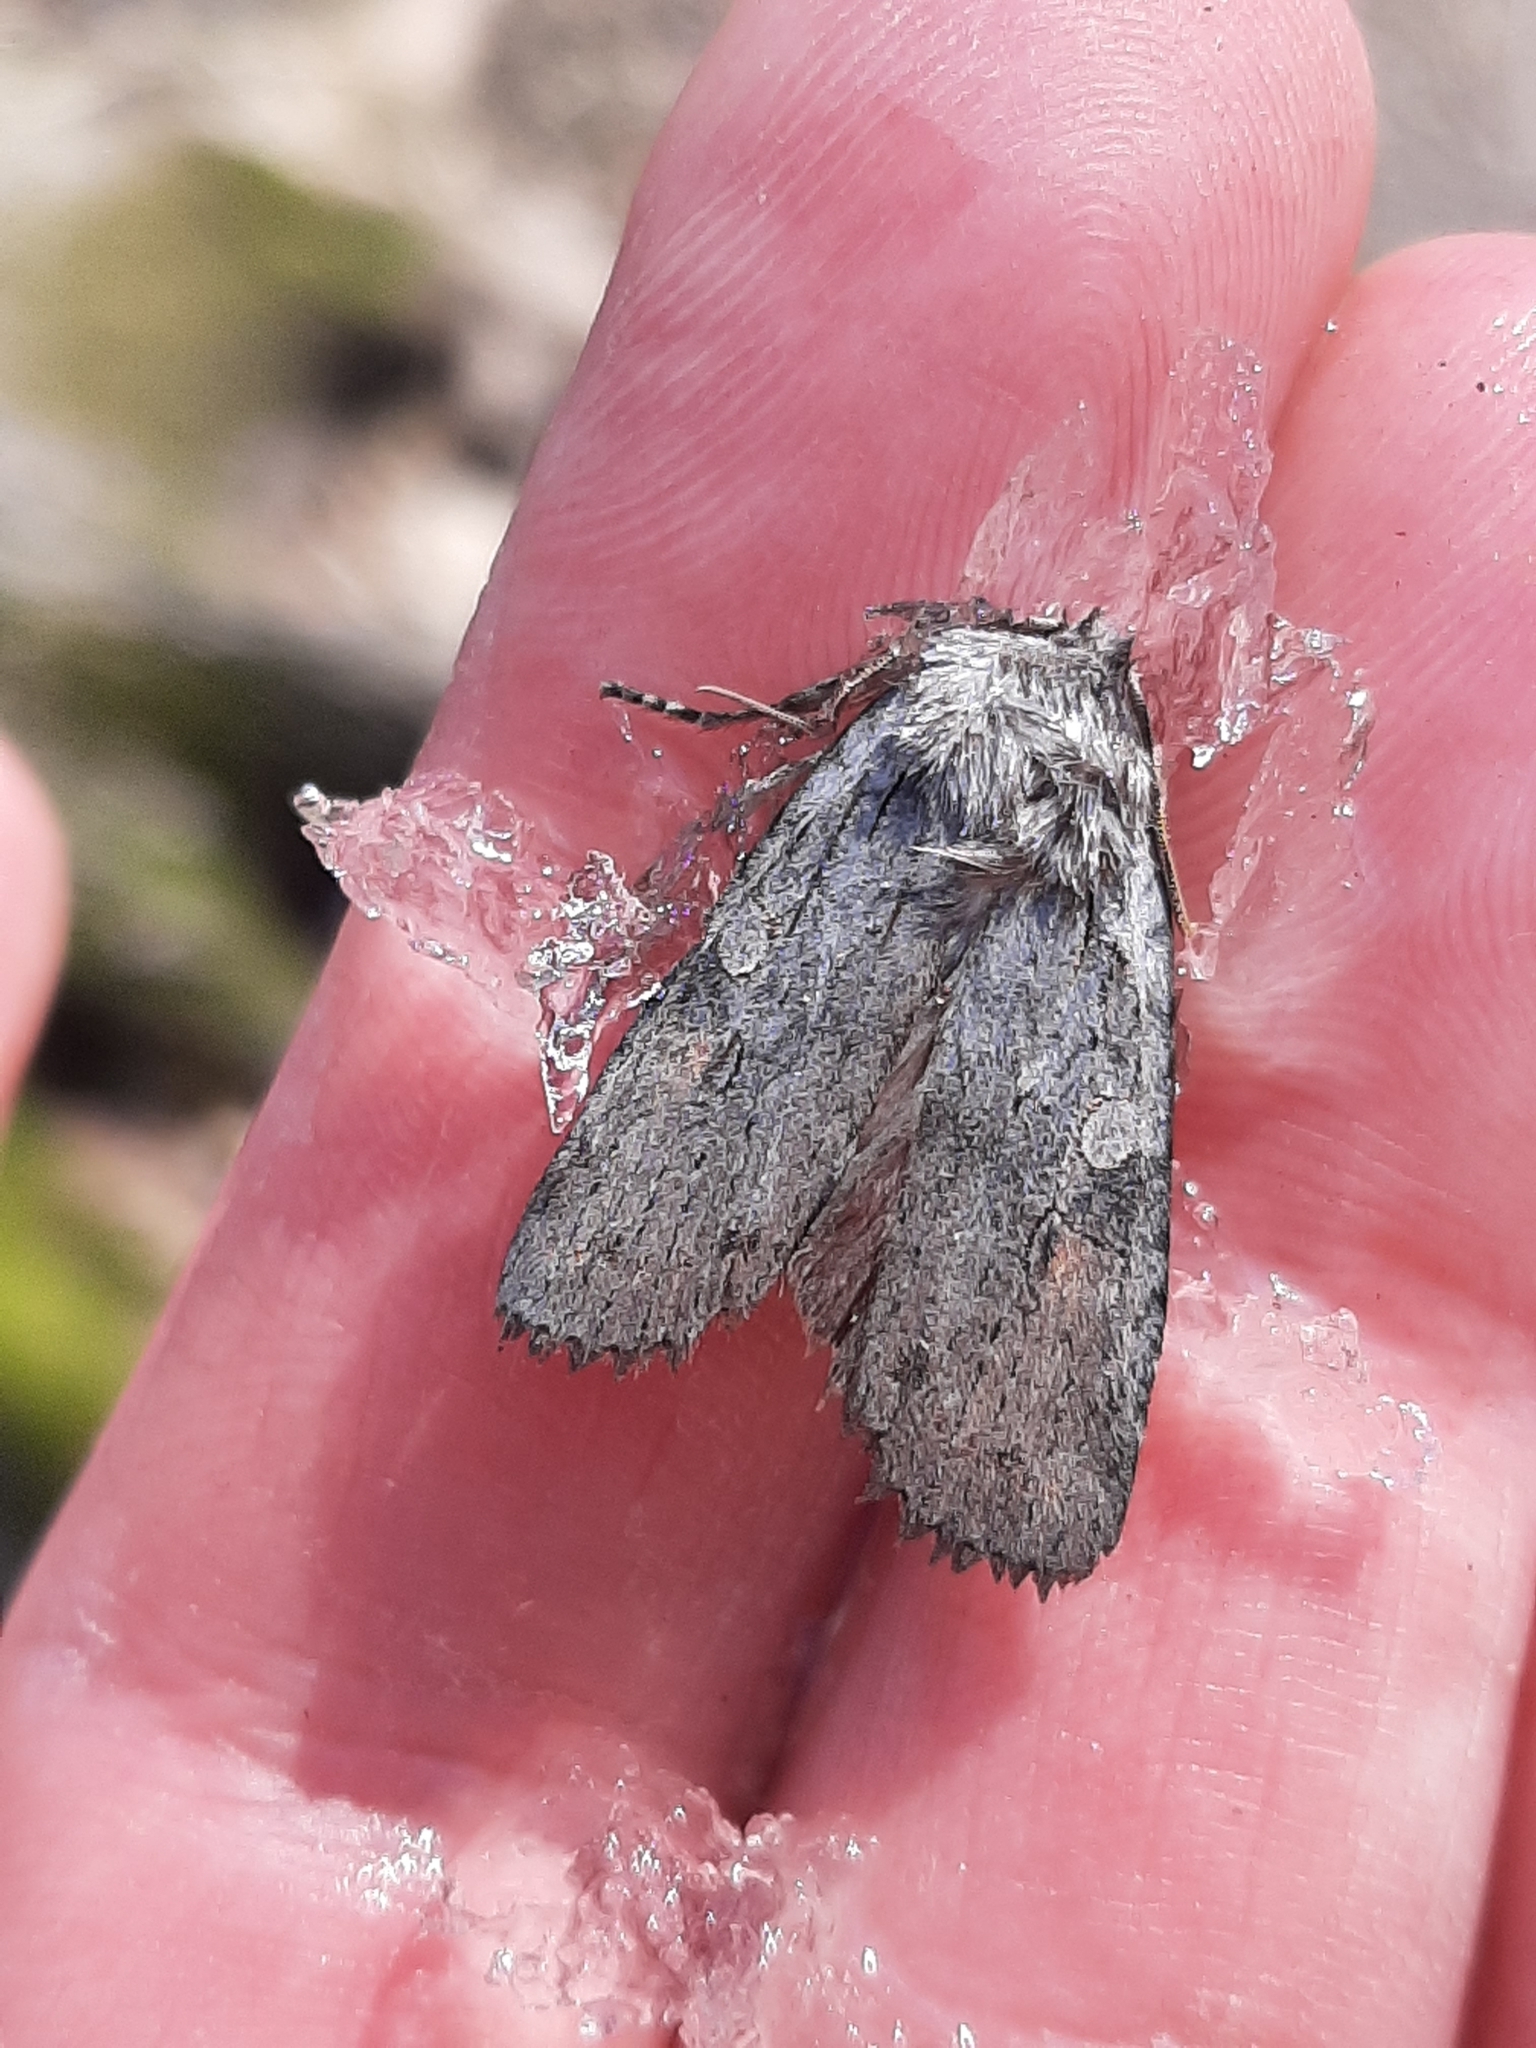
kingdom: Animalia
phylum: Arthropoda
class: Insecta
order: Lepidoptera
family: Noctuidae
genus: Lithophane
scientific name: Lithophane antennata
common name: Ashen pinion
